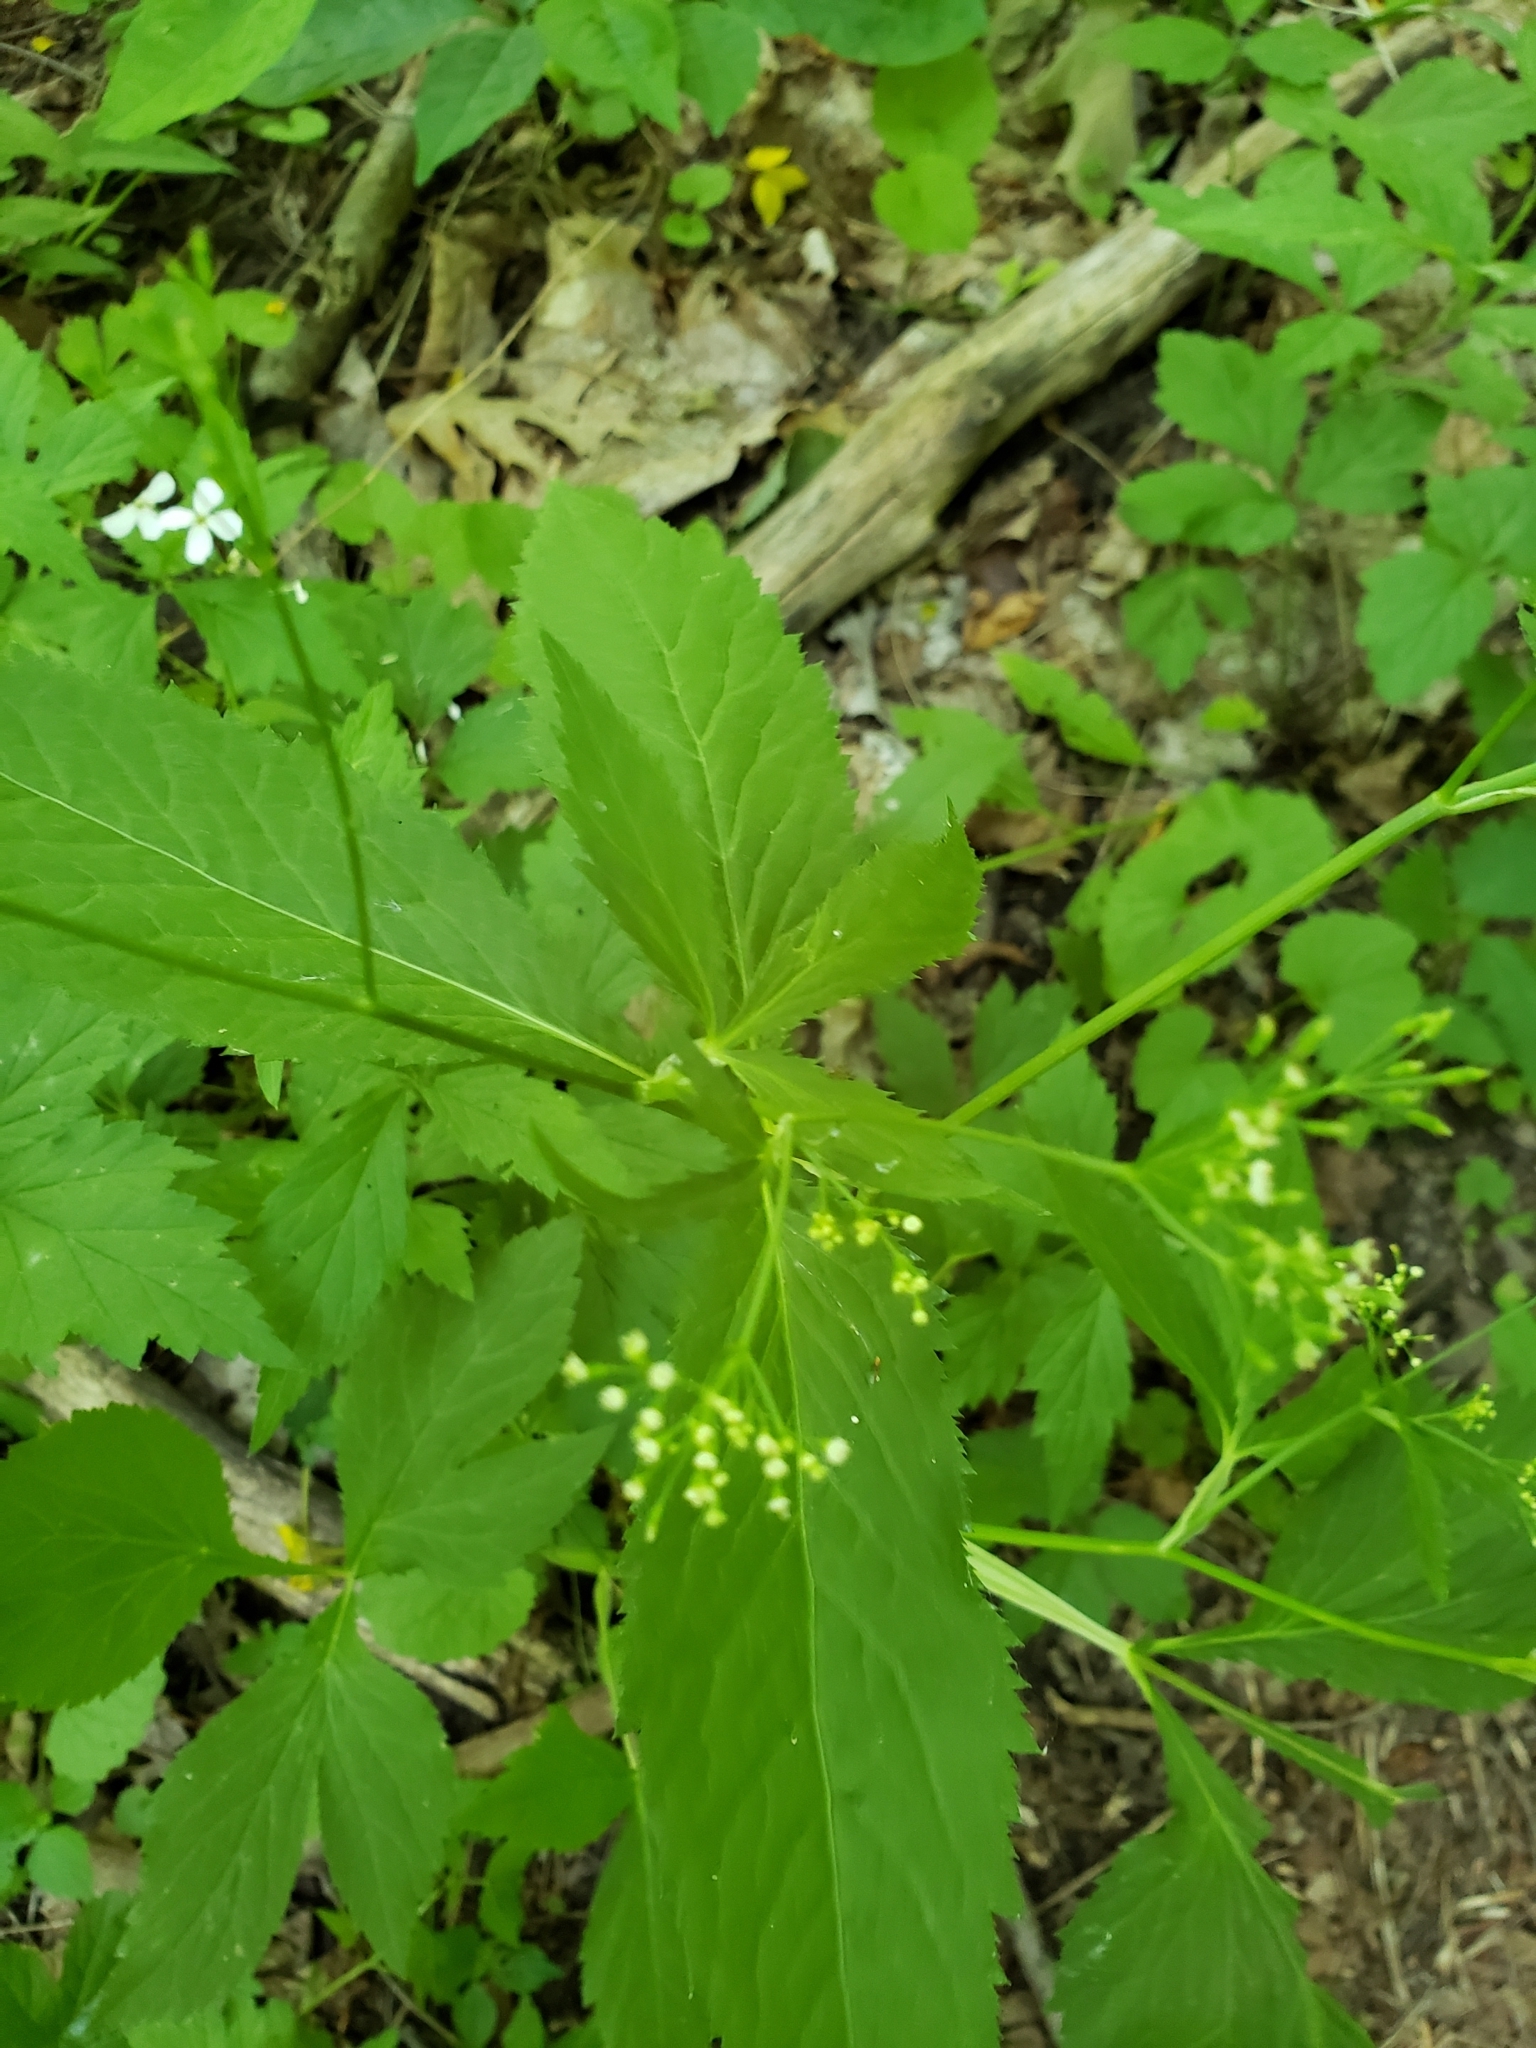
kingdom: Plantae
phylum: Tracheophyta
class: Magnoliopsida
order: Apiales
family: Apiaceae
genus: Cryptotaenia
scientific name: Cryptotaenia canadensis
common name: Honewort
